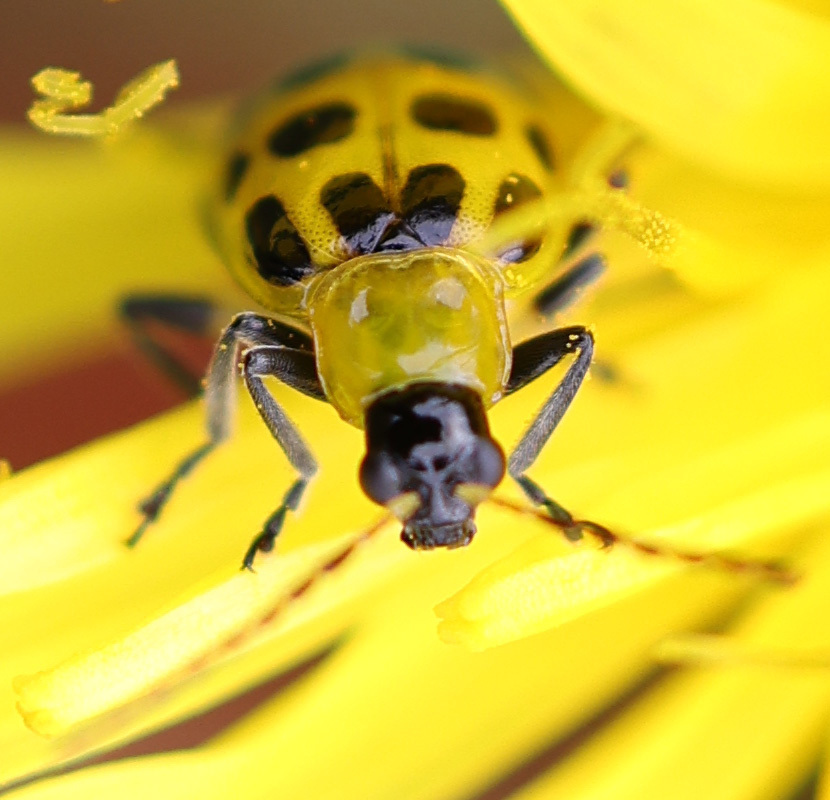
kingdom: Animalia
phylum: Arthropoda
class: Insecta
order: Coleoptera
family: Chrysomelidae
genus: Diabrotica
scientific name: Diabrotica undecimpunctata
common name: Spotted cucumber beetle
